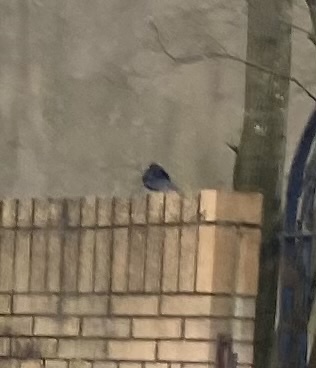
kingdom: Animalia
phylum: Chordata
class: Aves
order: Passeriformes
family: Turdidae
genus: Turdus
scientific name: Turdus merula
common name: Common blackbird
